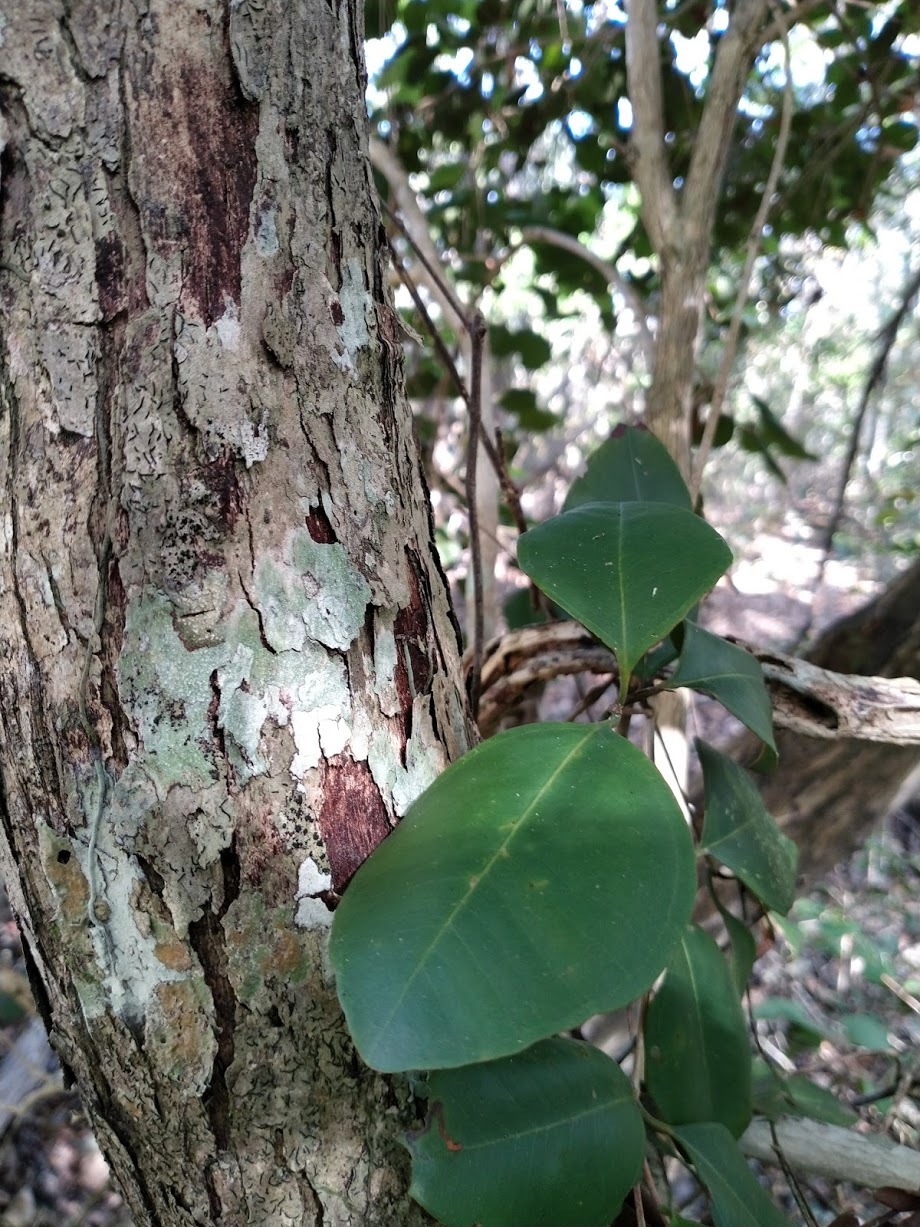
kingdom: Plantae
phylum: Tracheophyta
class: Magnoliopsida
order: Myrtales
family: Myrtaceae
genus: Rhodamnia
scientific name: Rhodamnia dumicola
